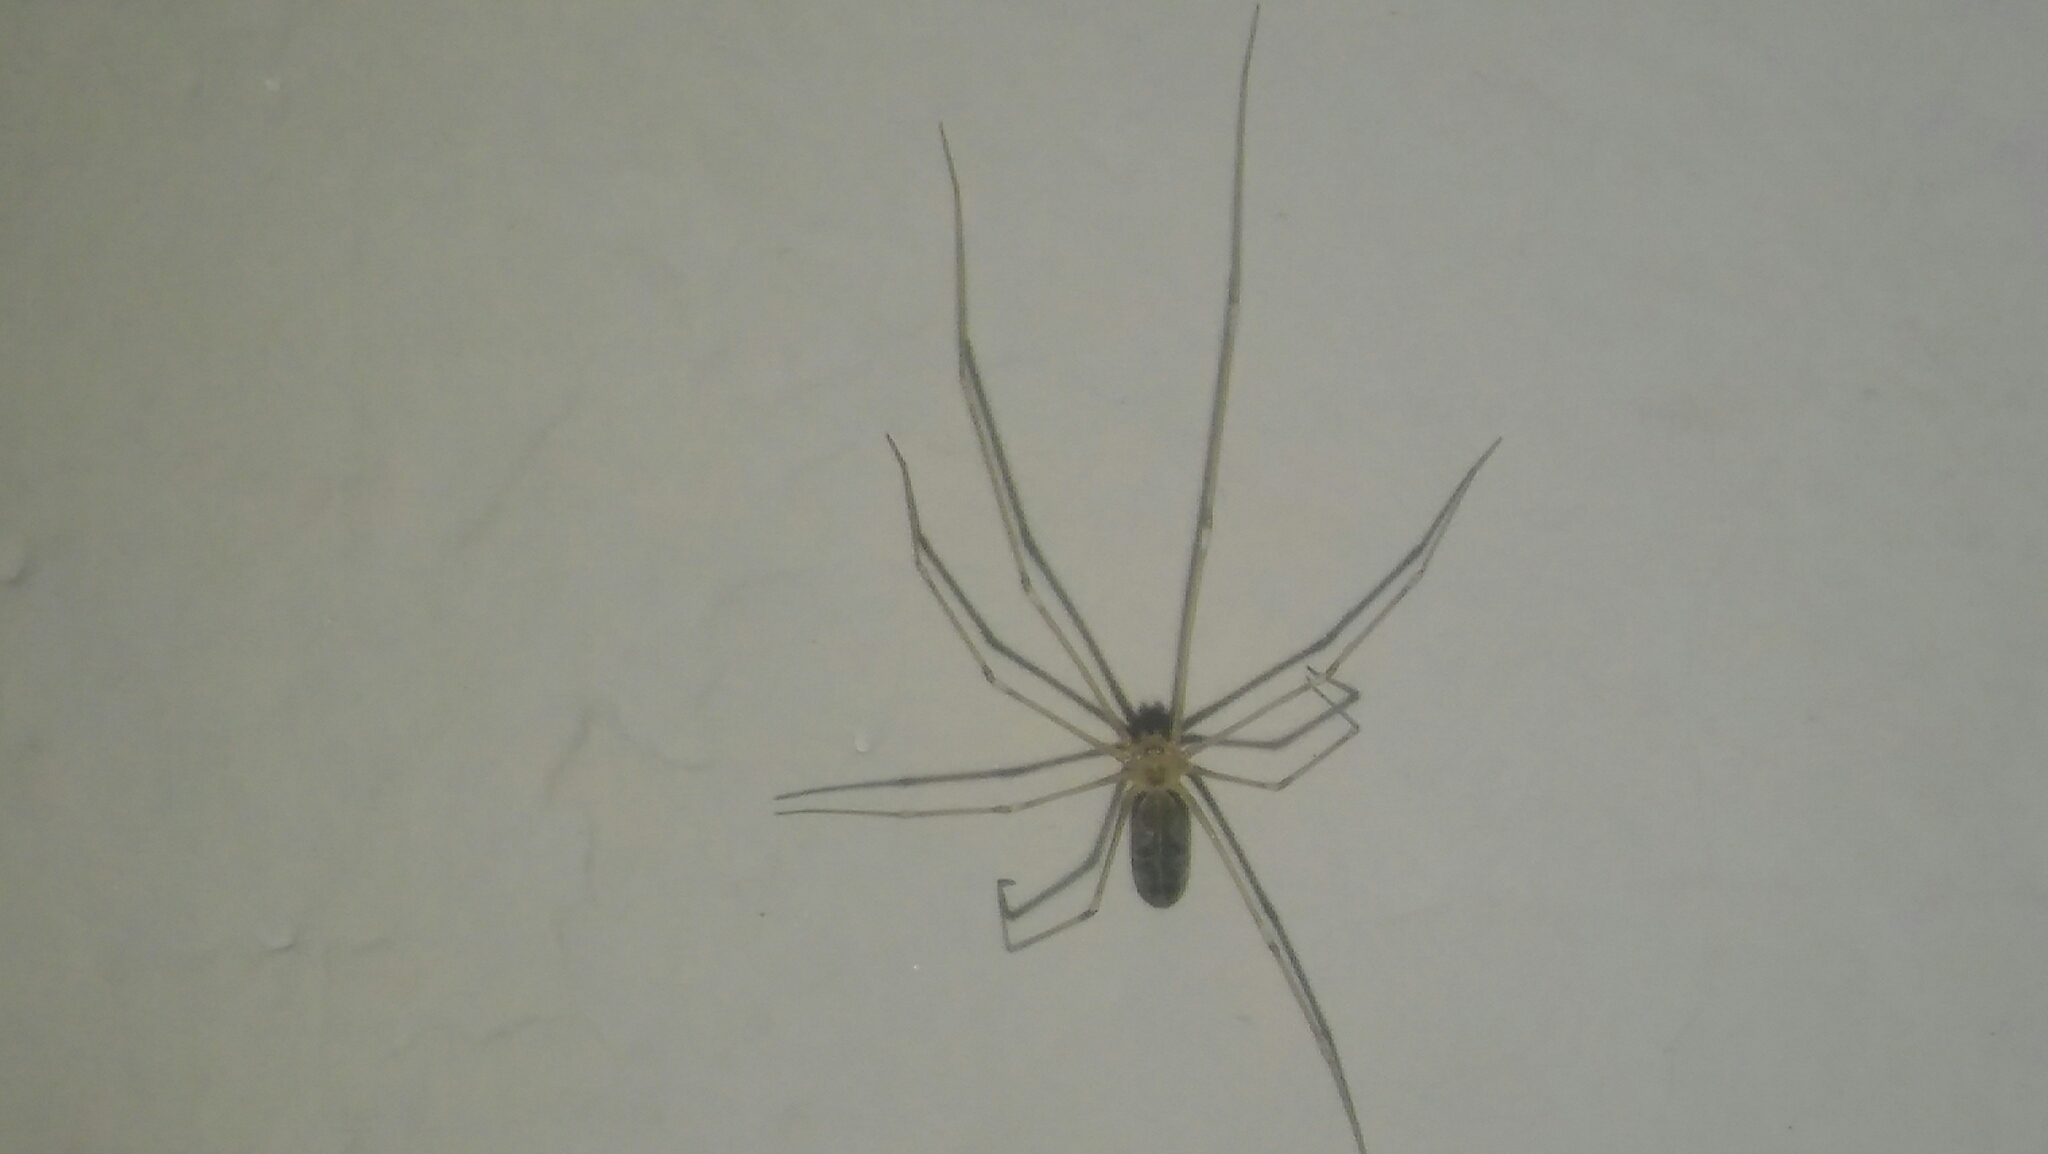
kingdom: Animalia
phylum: Arthropoda
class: Arachnida
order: Araneae
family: Pholcidae
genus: Pholcus
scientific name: Pholcus phalangioides
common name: Longbodied cellar spider
